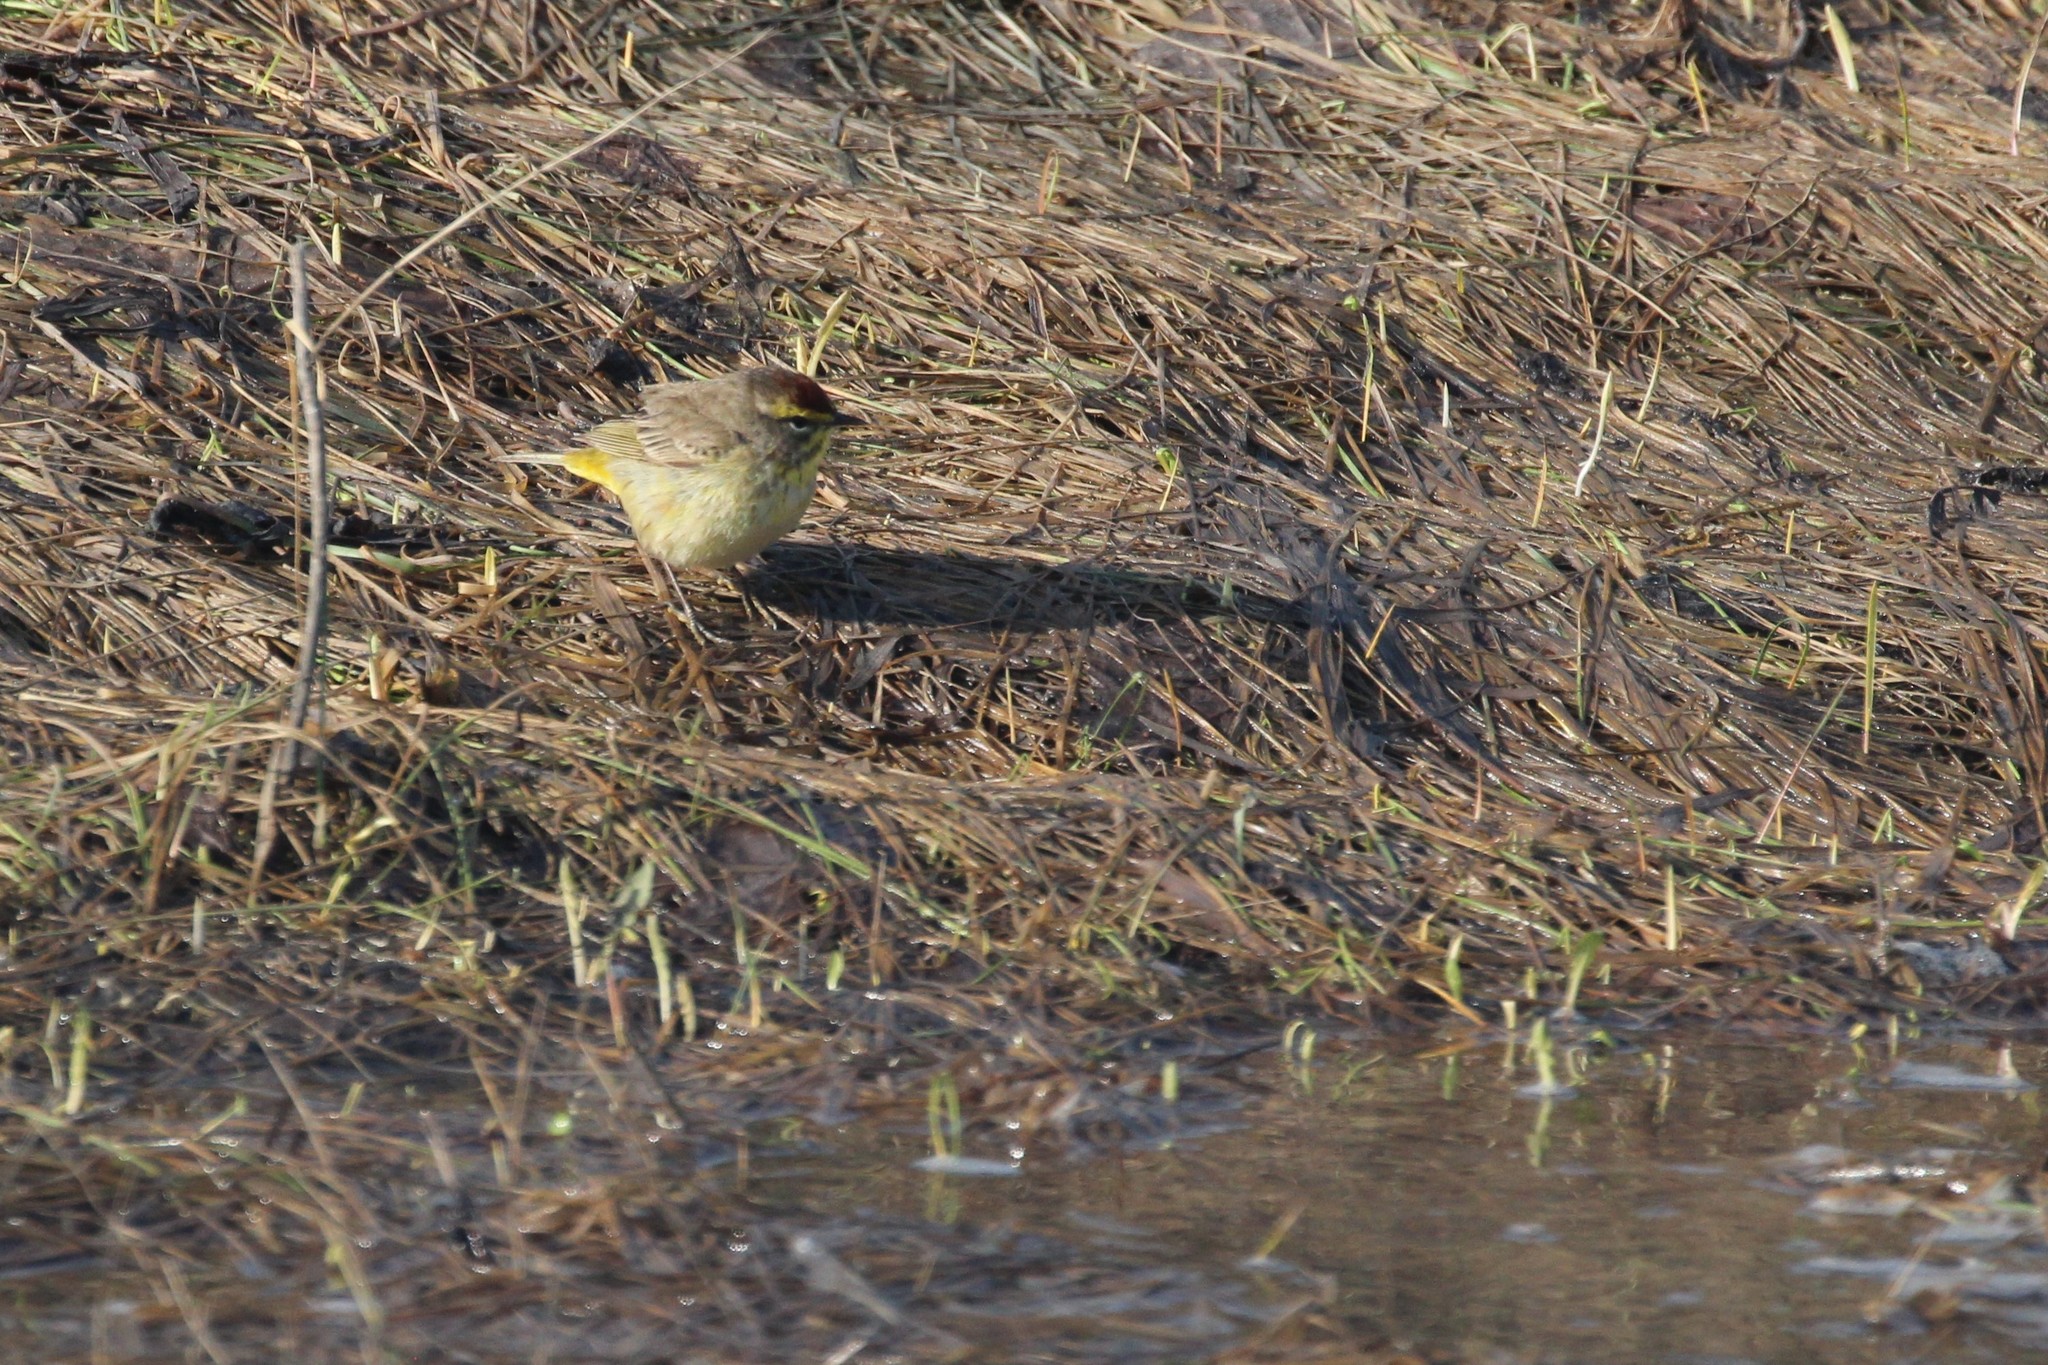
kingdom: Animalia
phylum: Chordata
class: Aves
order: Passeriformes
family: Parulidae
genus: Setophaga
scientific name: Setophaga palmarum
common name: Palm warbler
